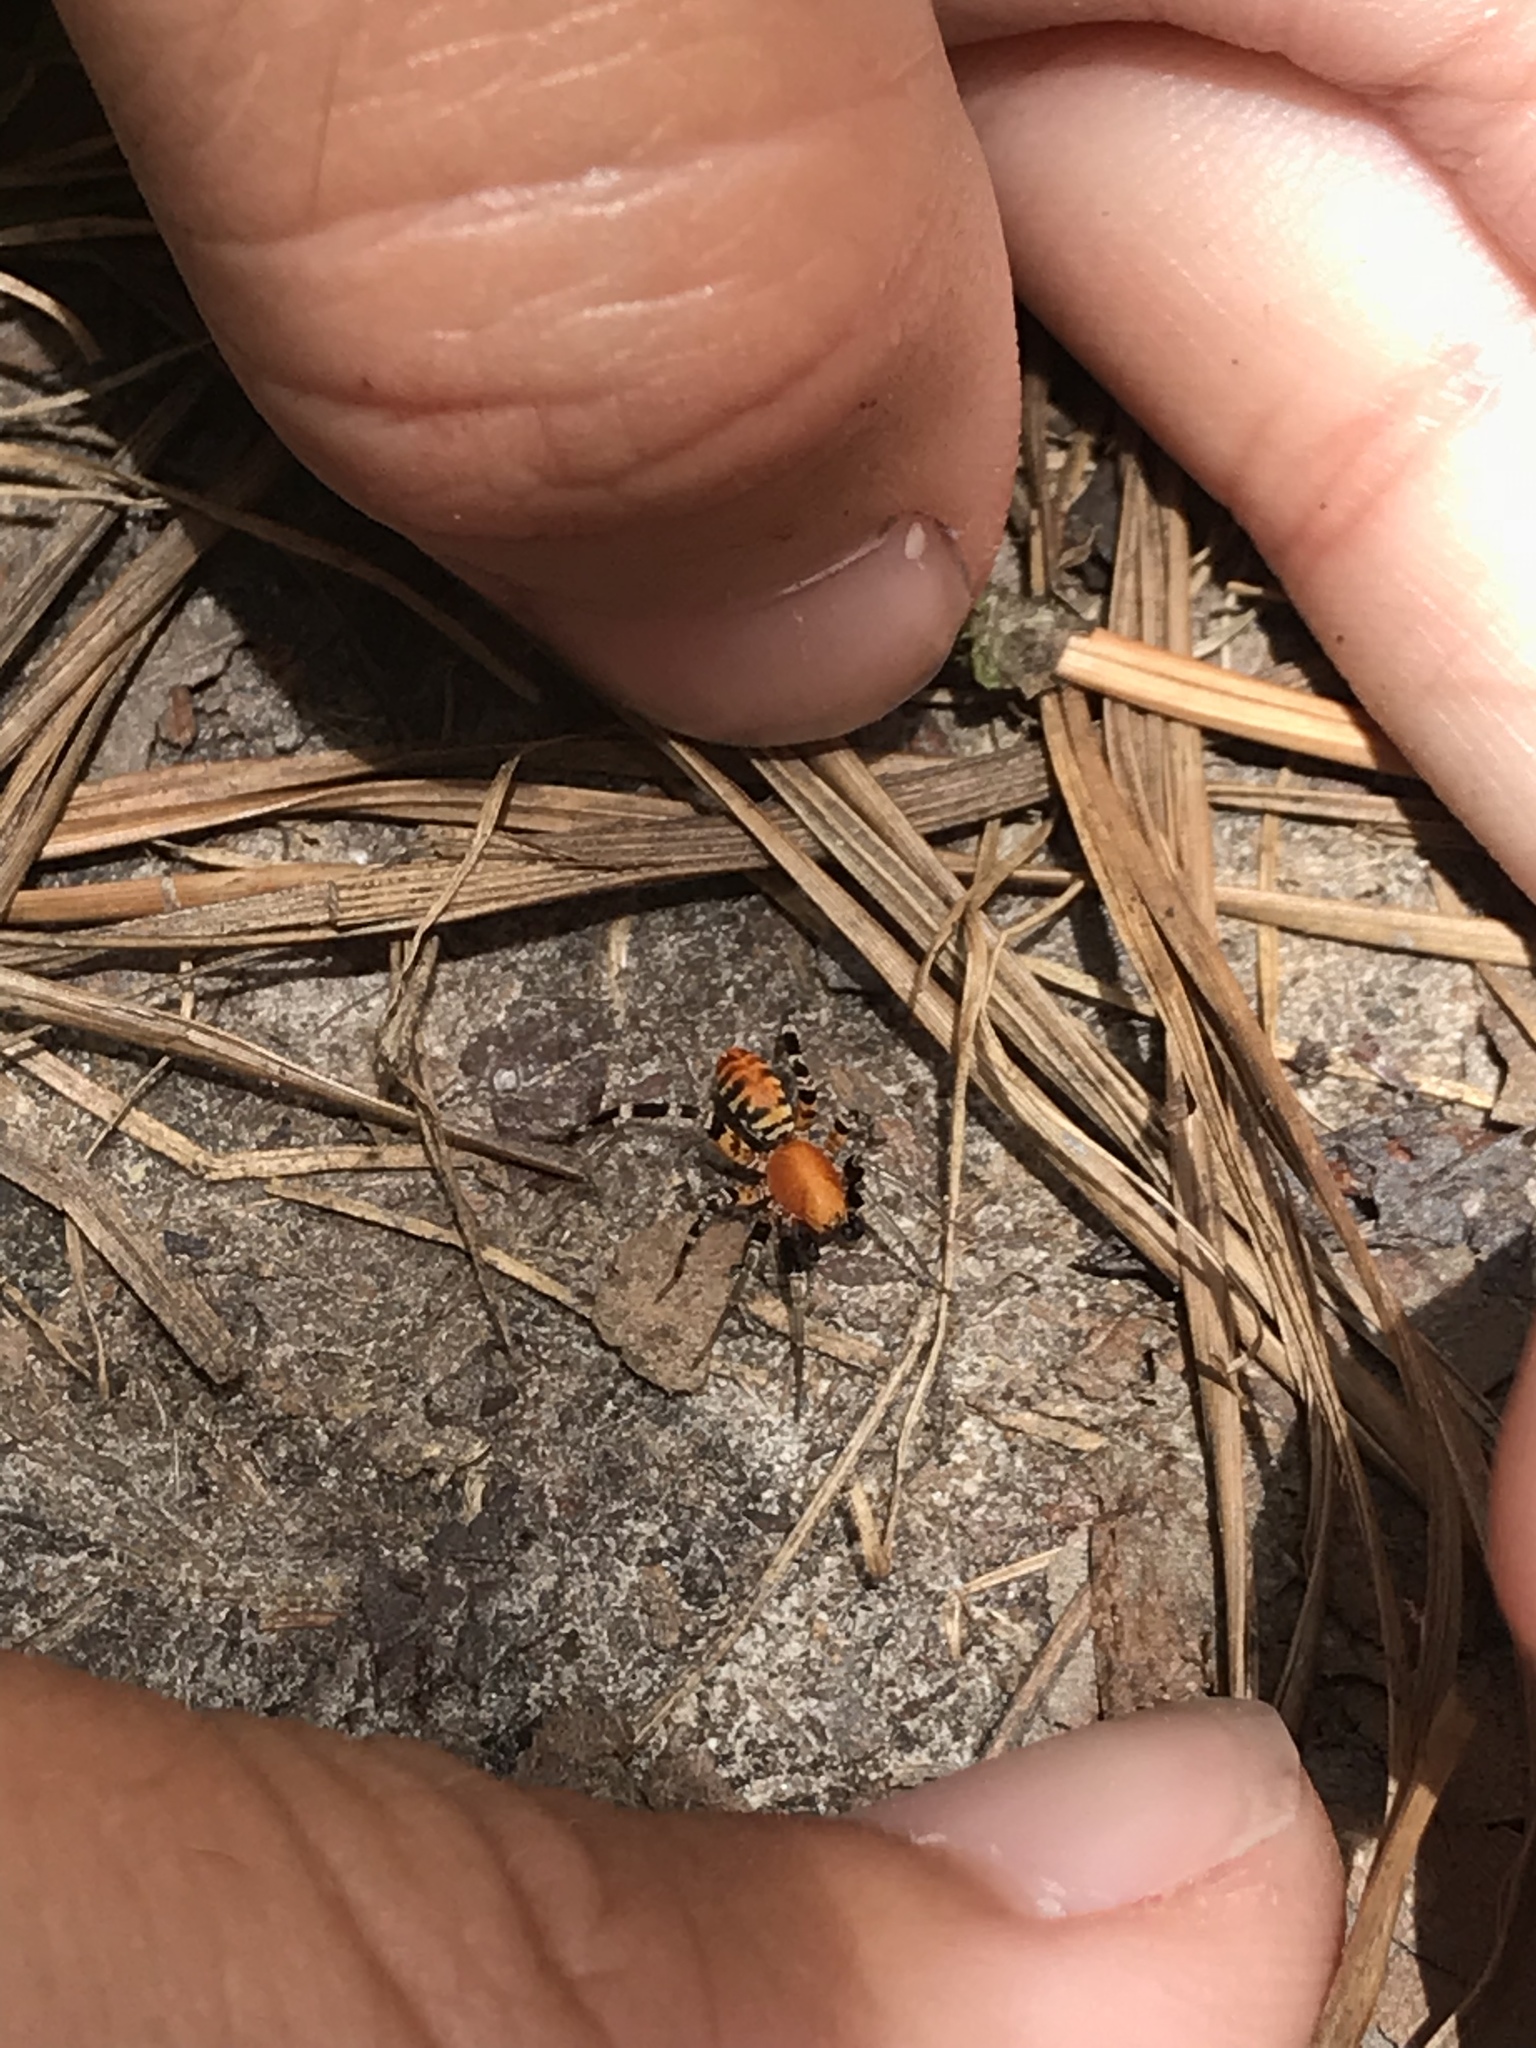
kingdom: Animalia
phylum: Arthropoda
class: Arachnida
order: Araneae
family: Corinnidae
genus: Castianeira
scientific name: Castianeira amoena
